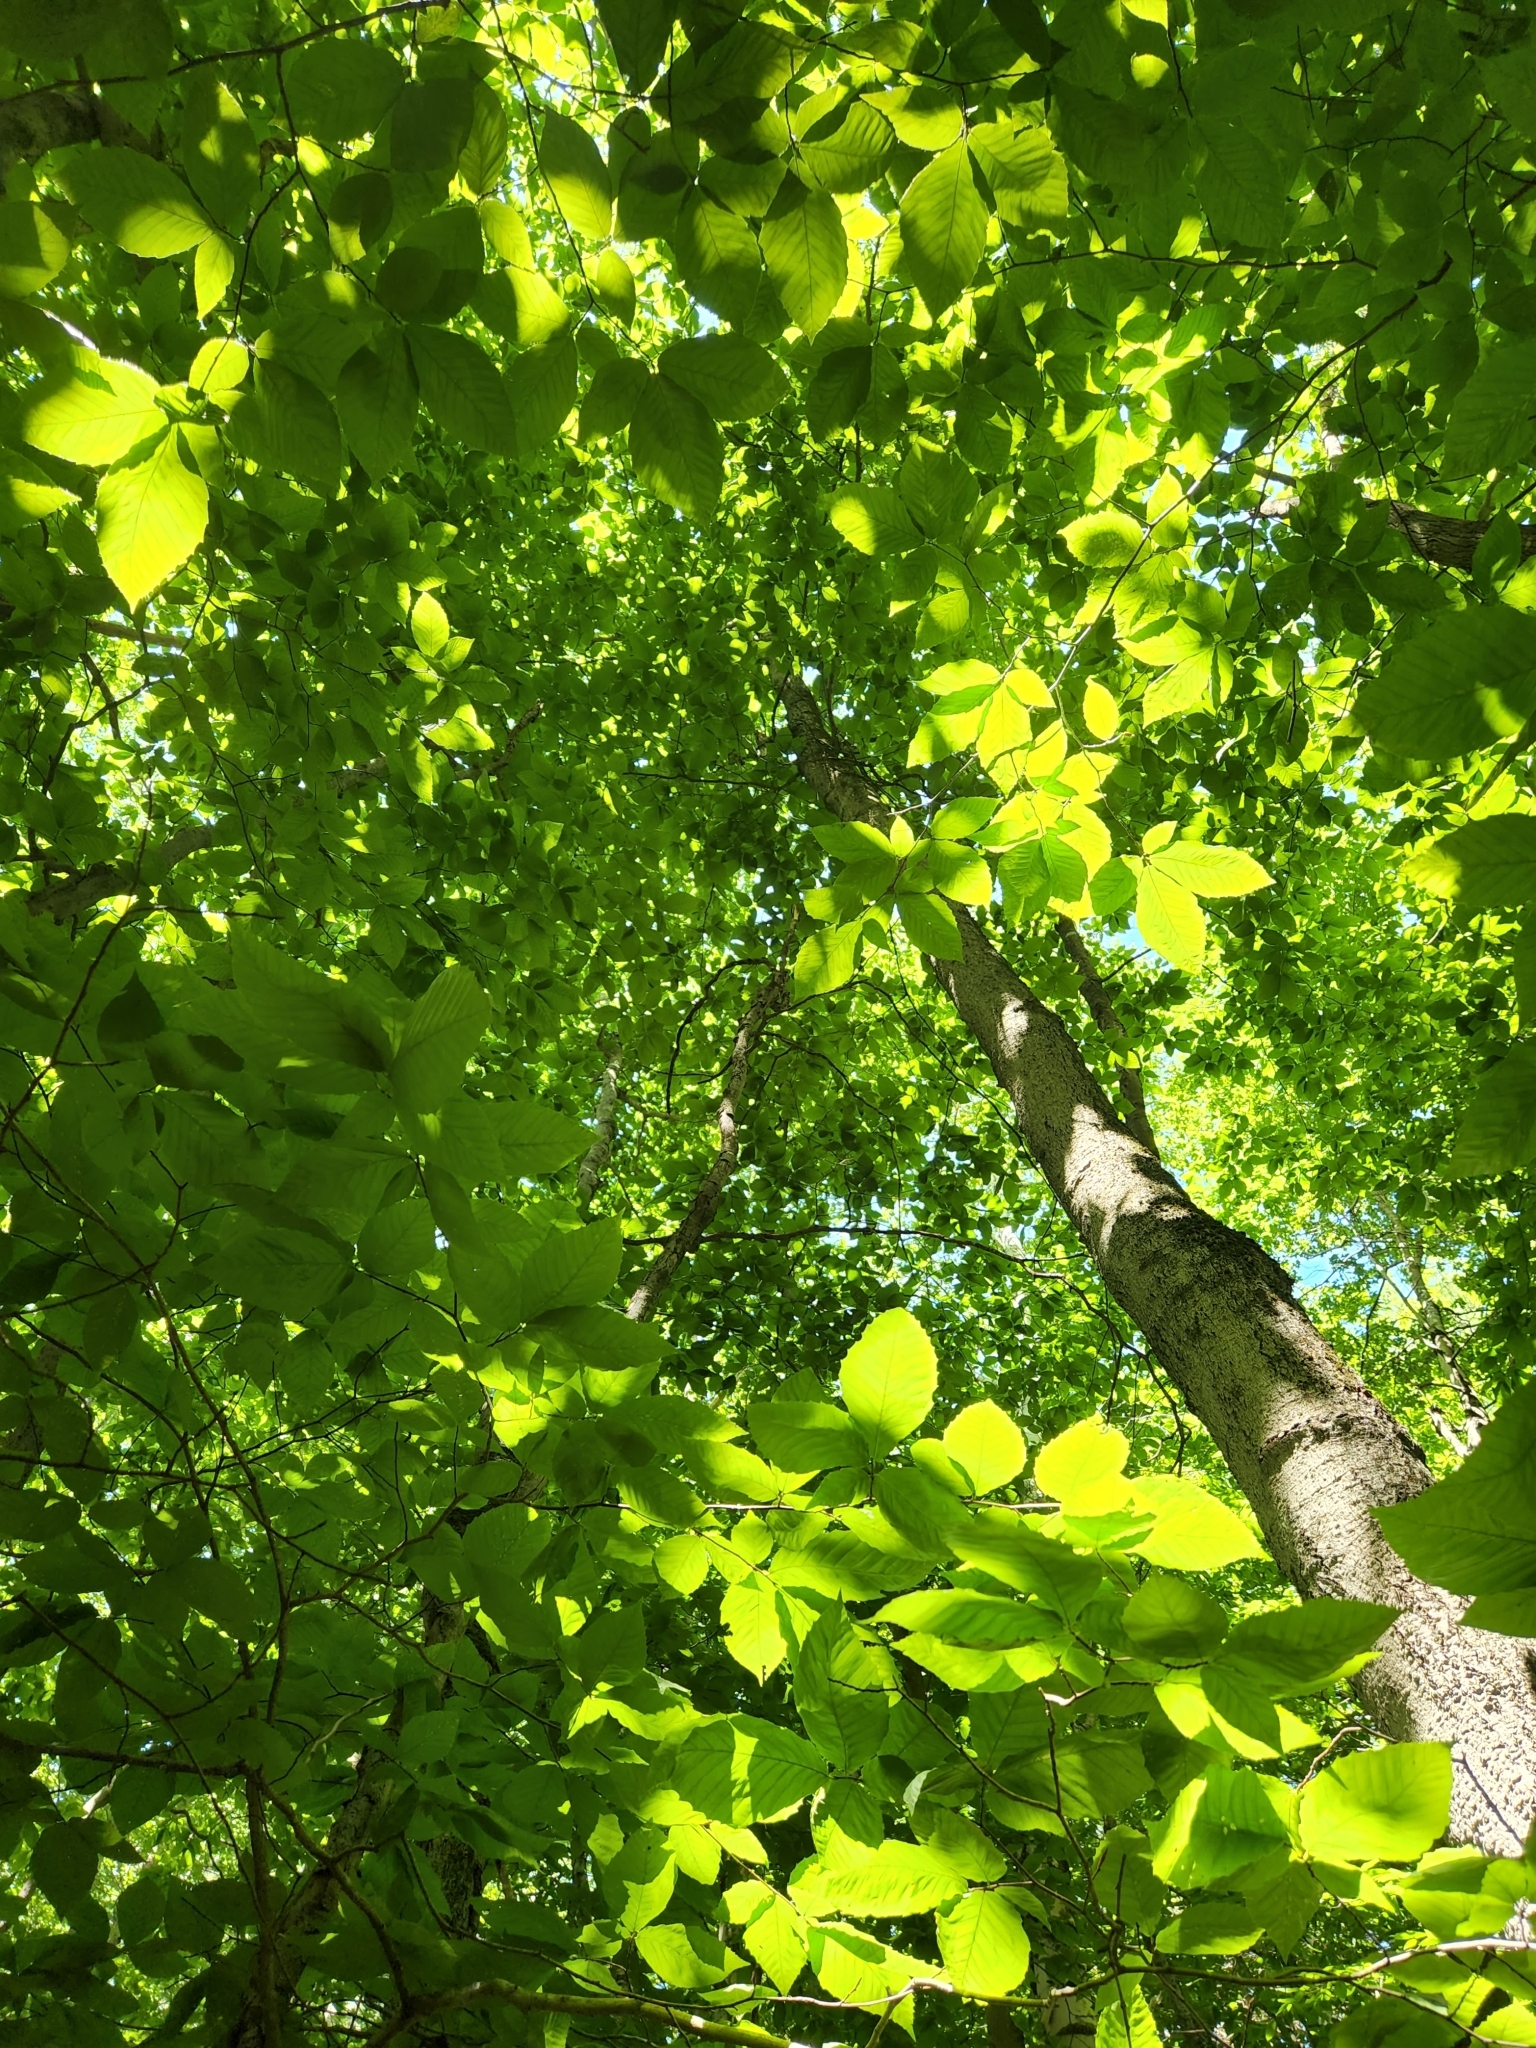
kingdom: Plantae
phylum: Tracheophyta
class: Magnoliopsida
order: Fagales
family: Fagaceae
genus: Fagus
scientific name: Fagus grandifolia
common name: American beech
